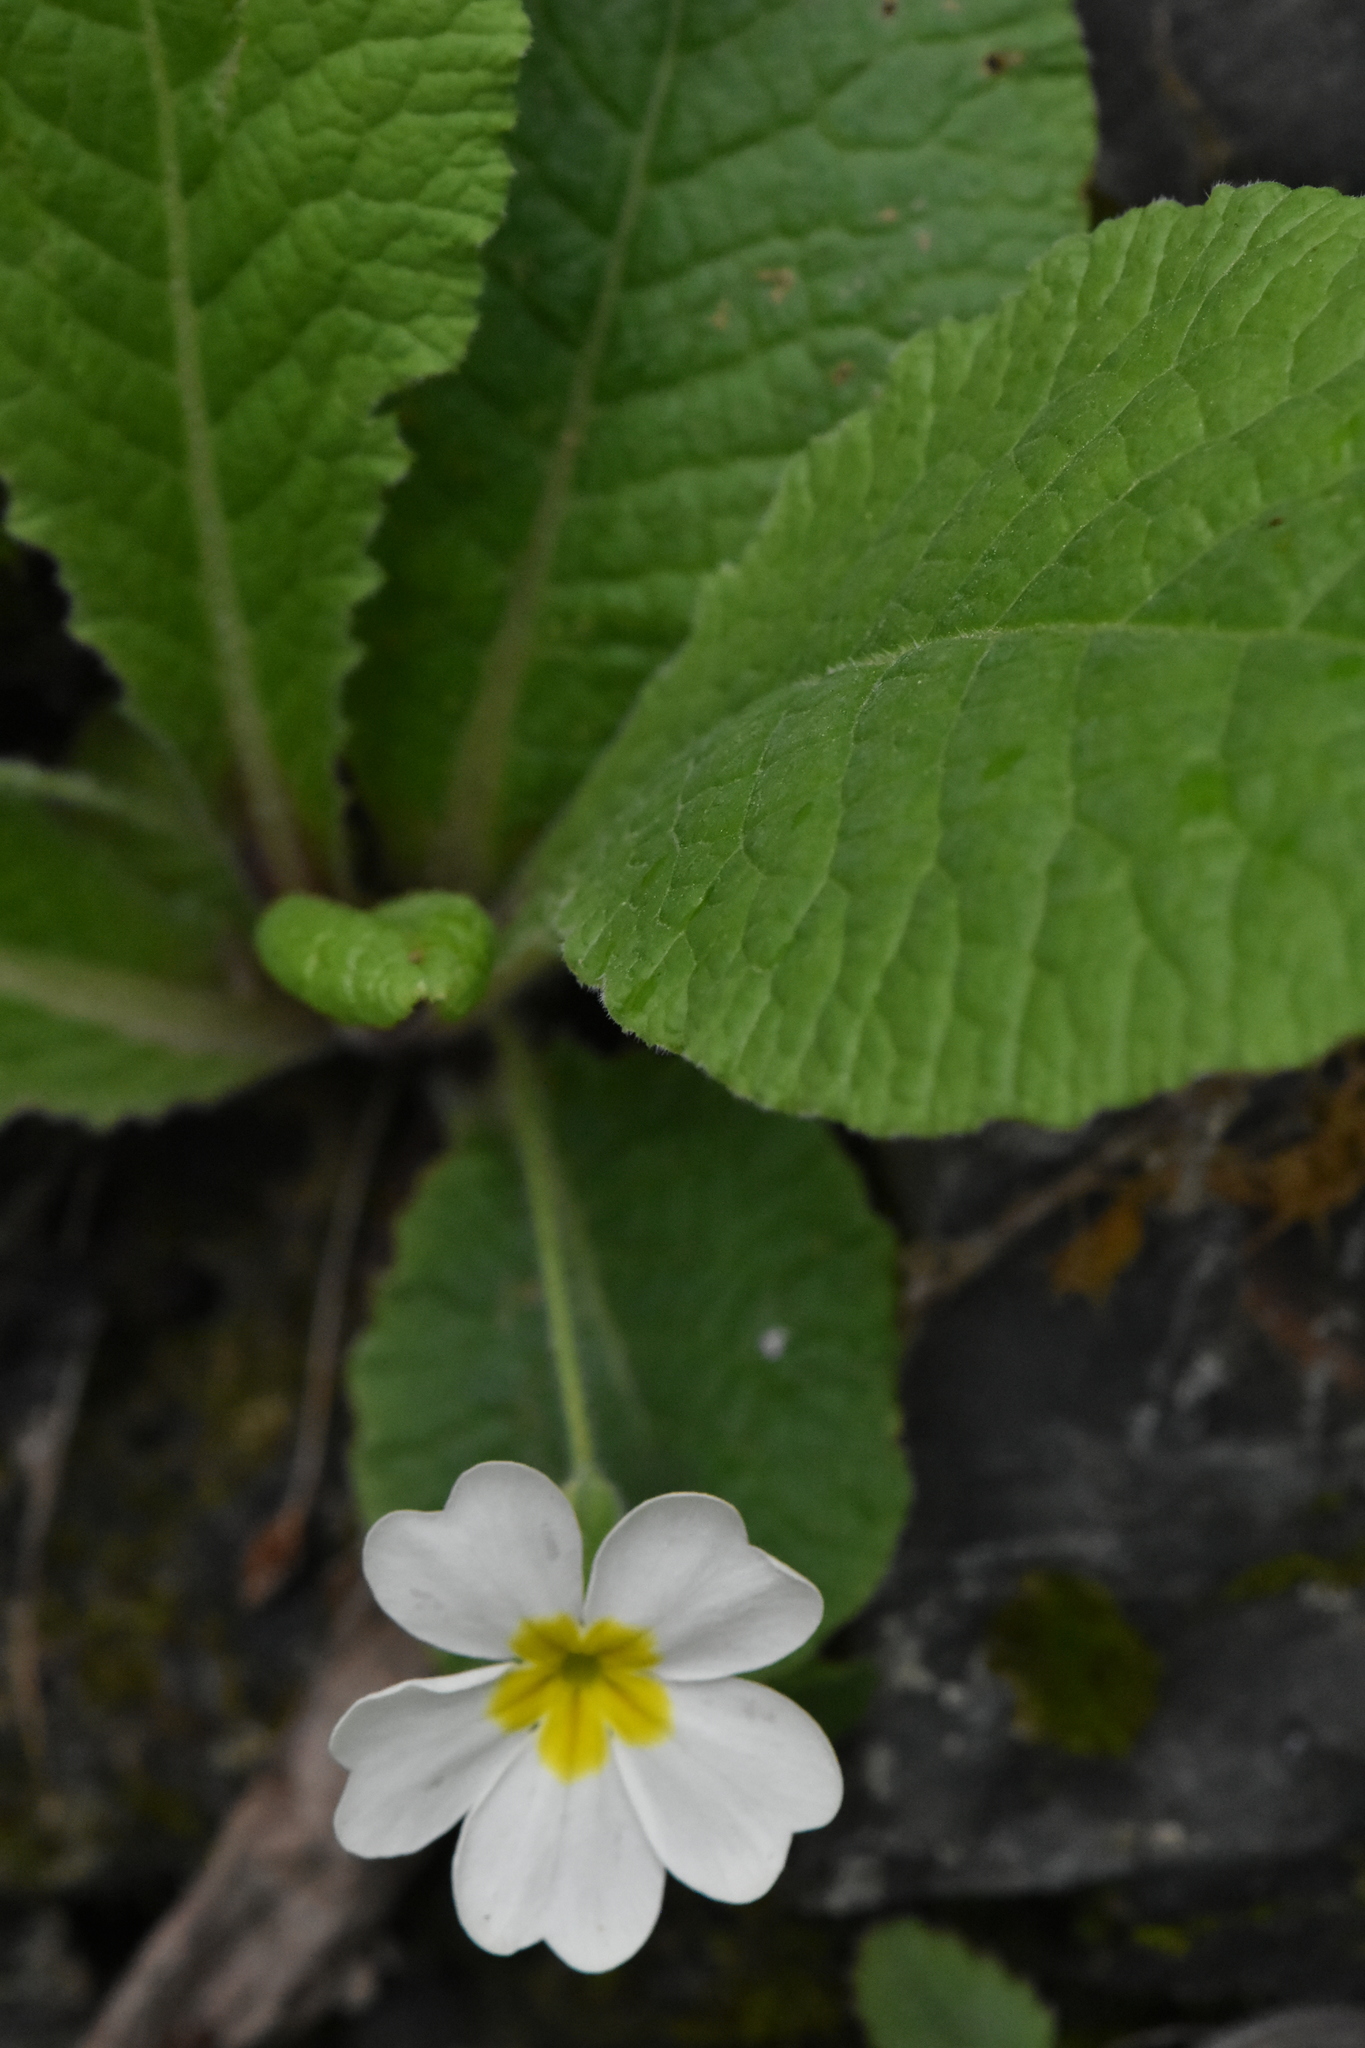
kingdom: Plantae
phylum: Tracheophyta
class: Magnoliopsida
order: Ericales
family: Primulaceae
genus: Primula
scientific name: Primula vulgaris
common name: Primrose
